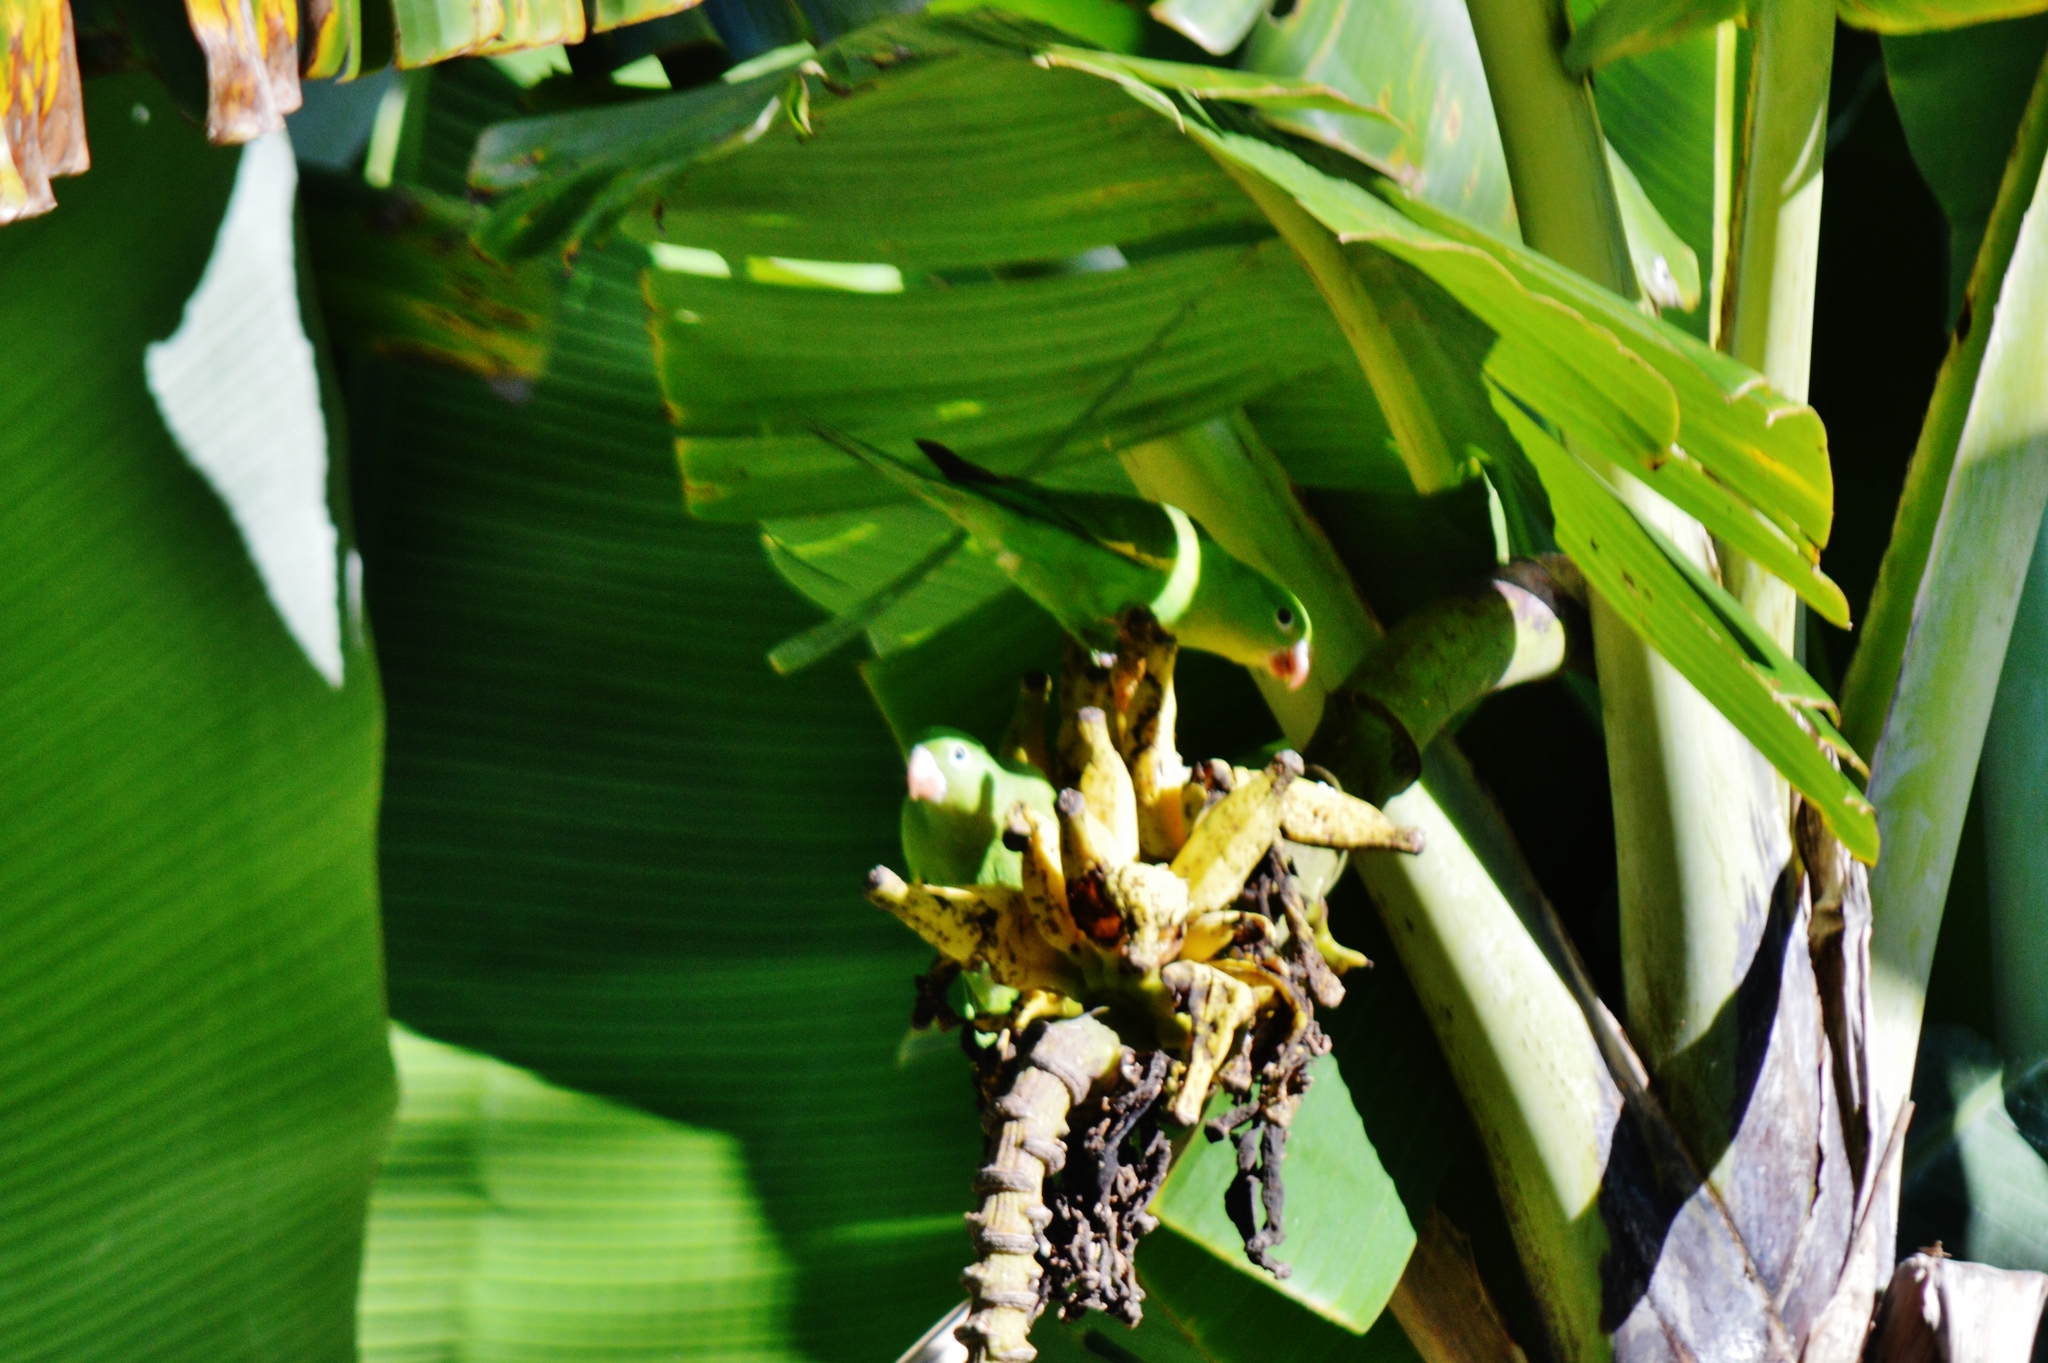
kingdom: Animalia
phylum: Chordata
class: Aves
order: Psittaciformes
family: Psittacidae
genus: Brotogeris
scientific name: Brotogeris chiriri
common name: Yellow-chevroned parakeet
